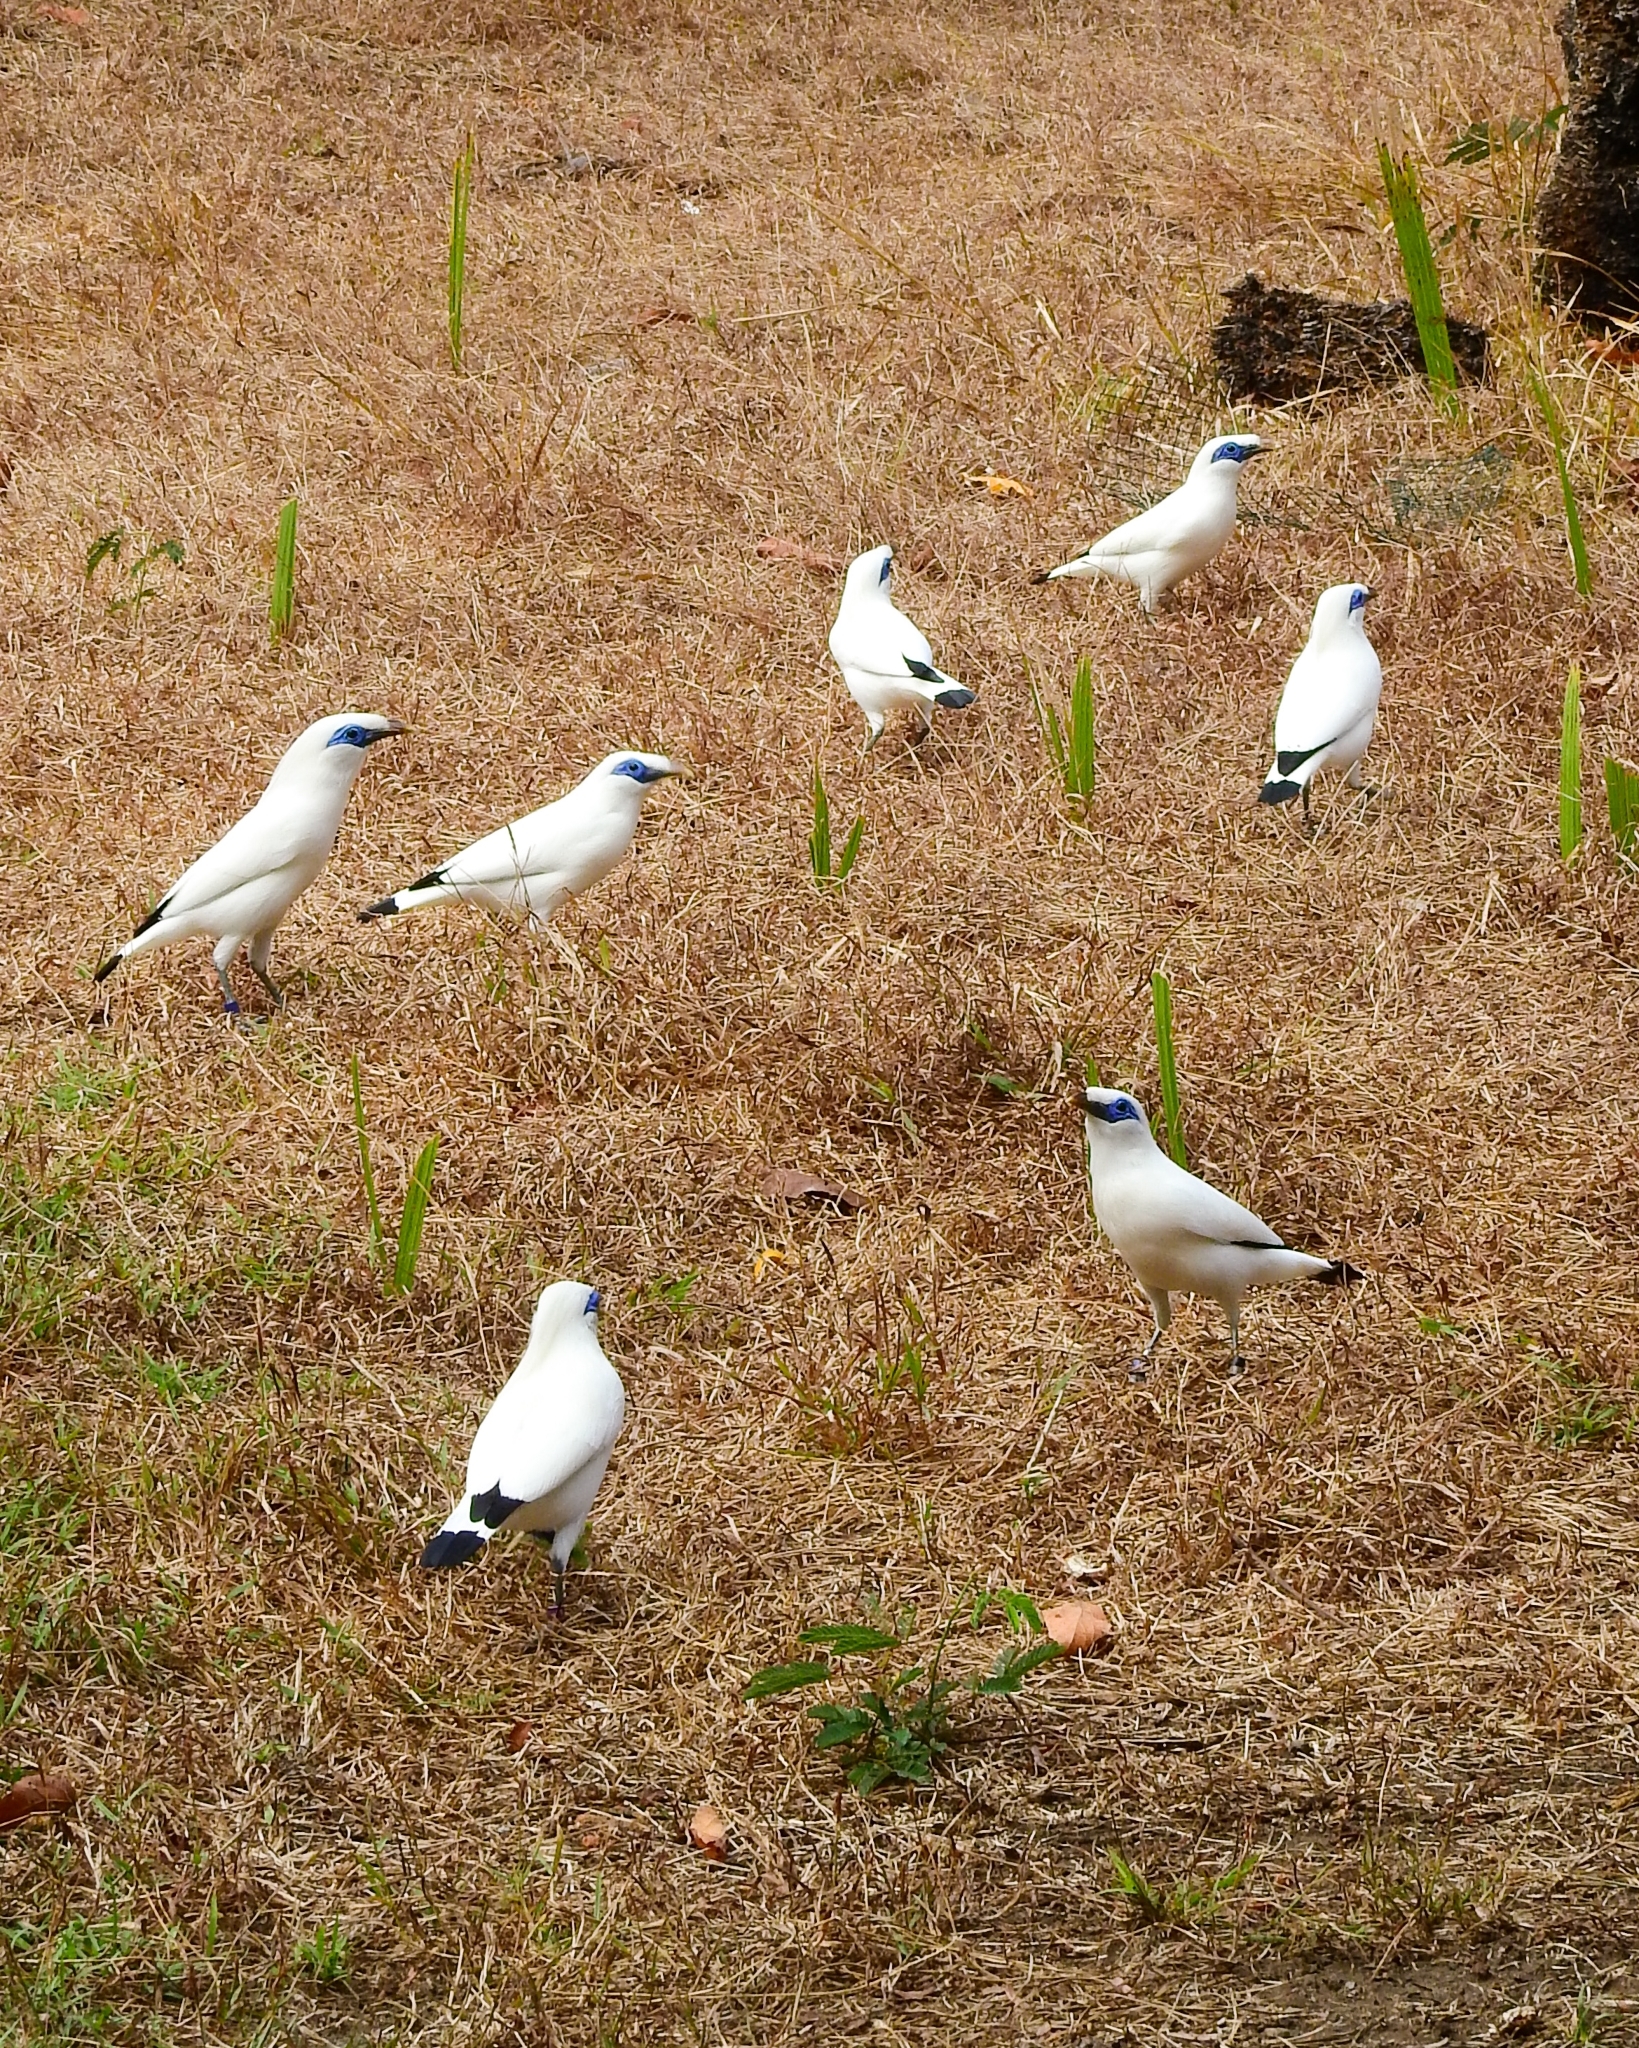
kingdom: Animalia
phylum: Chordata
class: Aves
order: Passeriformes
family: Sturnidae
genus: Leucopsar
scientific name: Leucopsar rothschildi
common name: Bali myna
